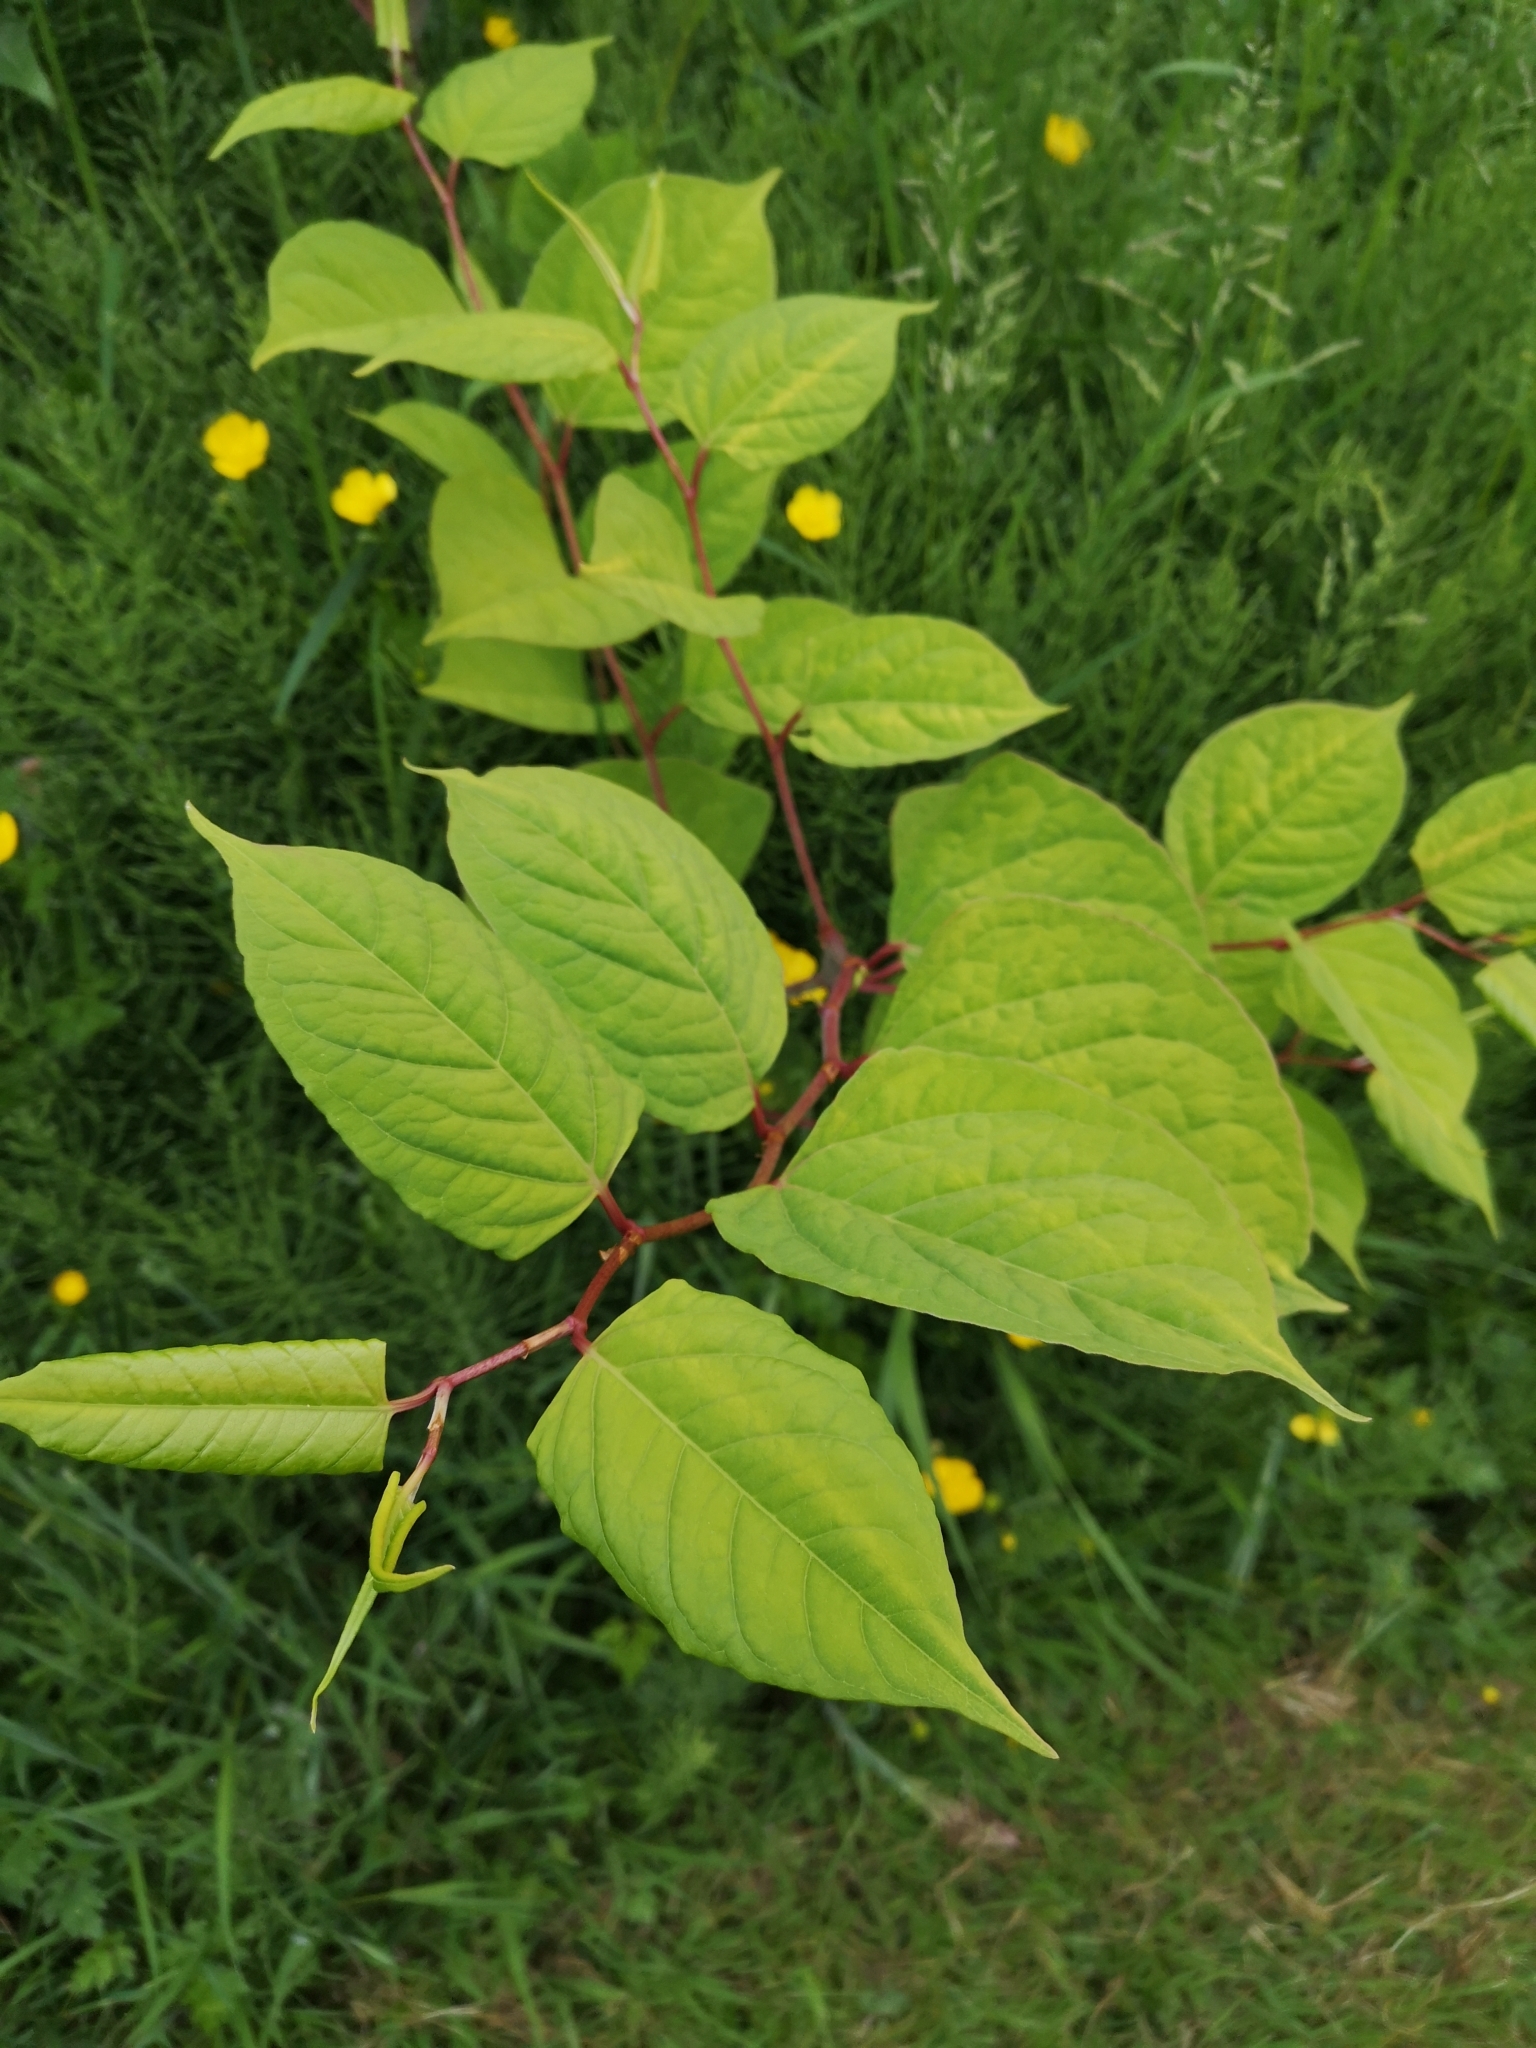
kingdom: Plantae
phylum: Tracheophyta
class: Magnoliopsida
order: Caryophyllales
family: Polygonaceae
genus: Reynoutria
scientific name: Reynoutria japonica
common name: Japanese knotweed
